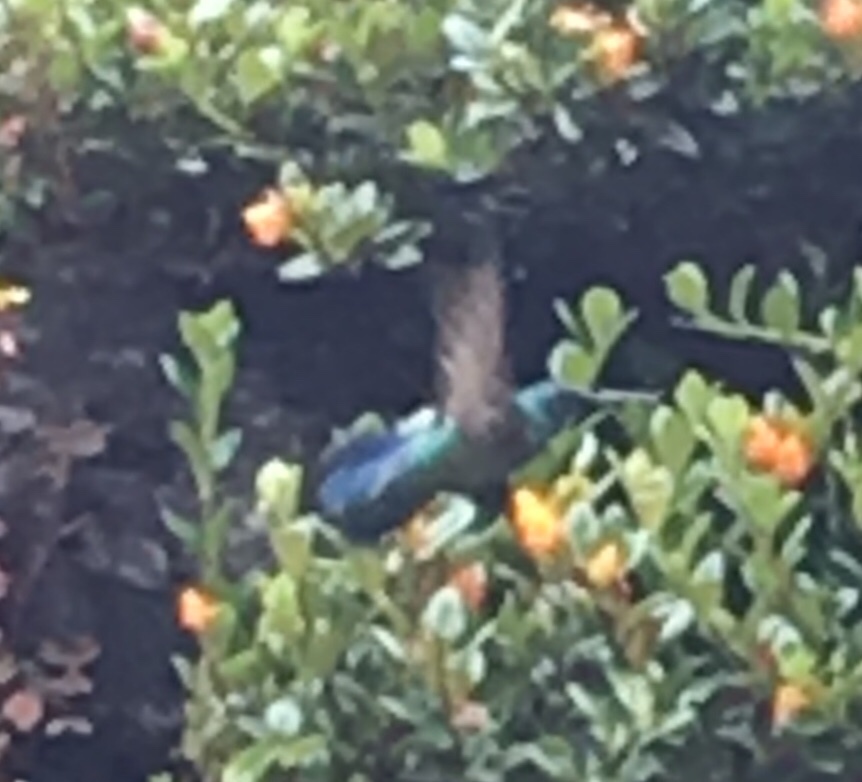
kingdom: Animalia
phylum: Chordata
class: Aves
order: Apodiformes
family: Trochilidae
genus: Colibri
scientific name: Colibri coruscans
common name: Sparkling violetear
